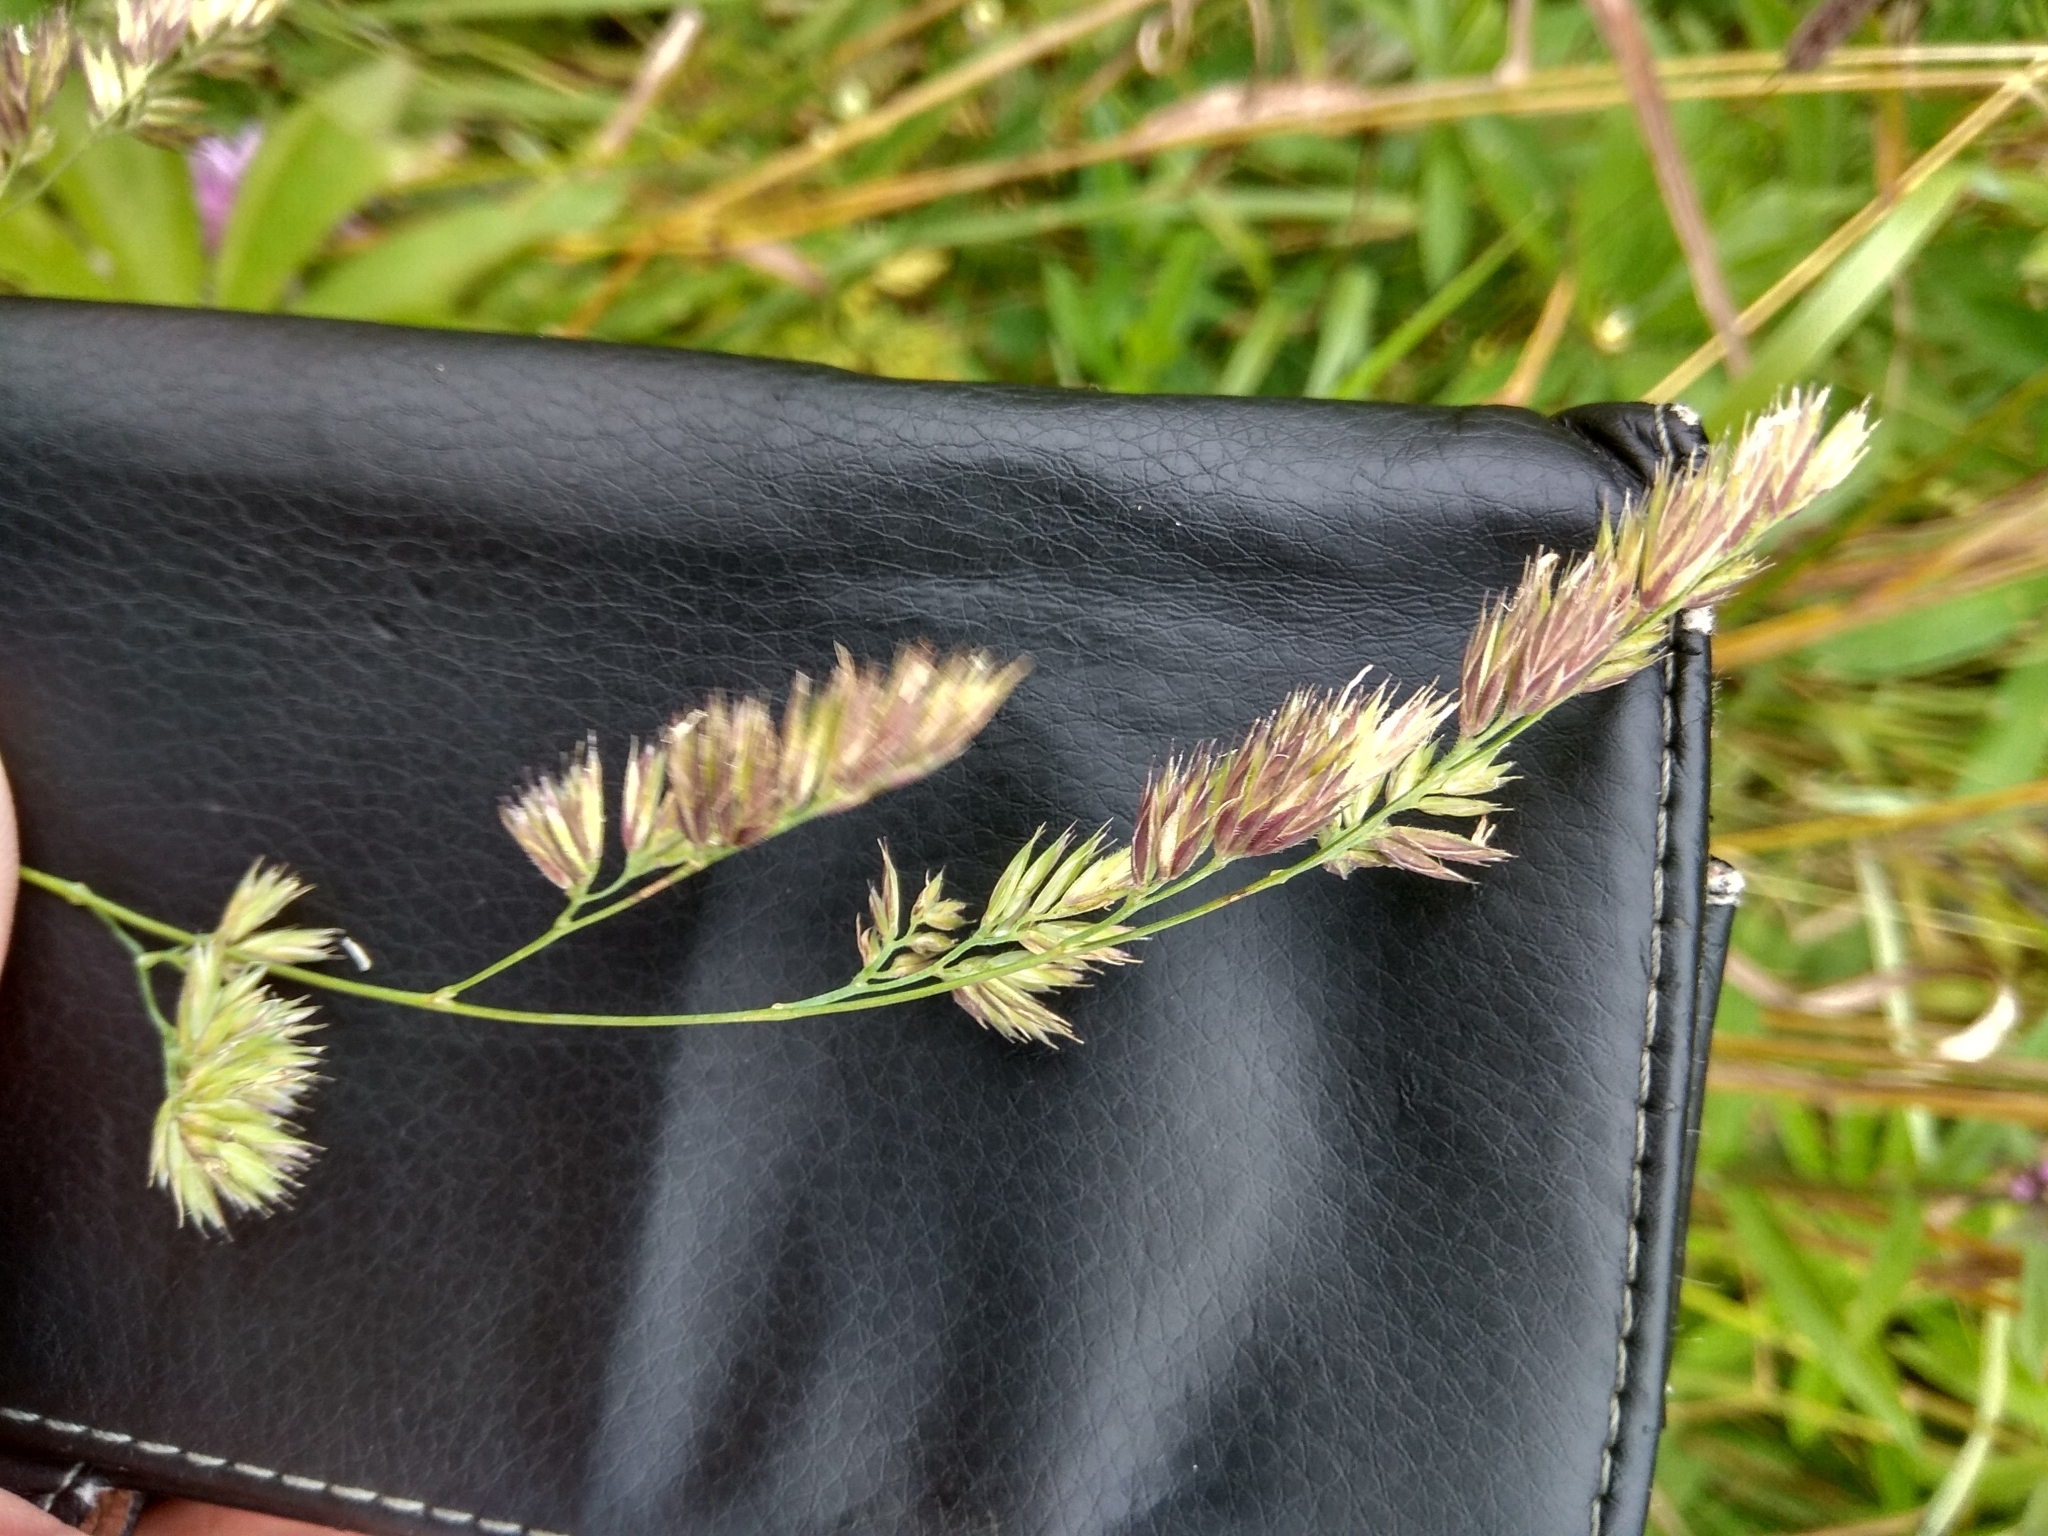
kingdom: Plantae
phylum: Tracheophyta
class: Liliopsida
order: Poales
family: Poaceae
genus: Dactylis
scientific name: Dactylis glomerata
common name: Orchardgrass
